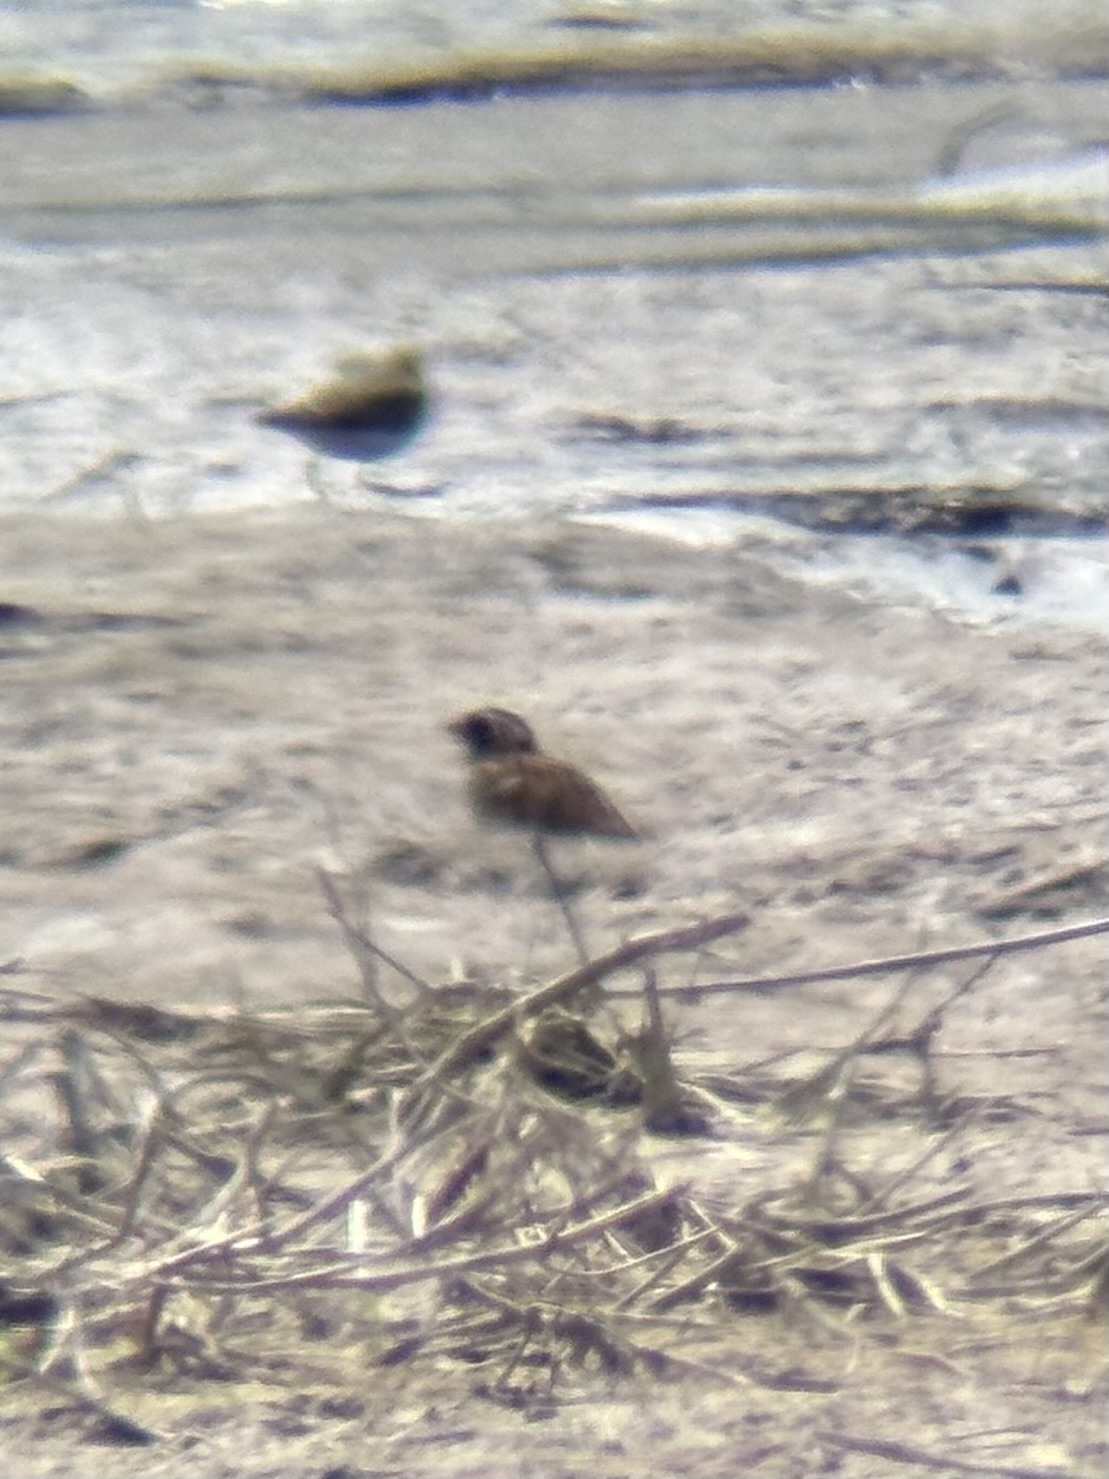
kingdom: Animalia
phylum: Chordata
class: Aves
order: Passeriformes
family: Calcariidae
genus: Calcarius
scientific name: Calcarius lapponicus
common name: Lapland longspur
